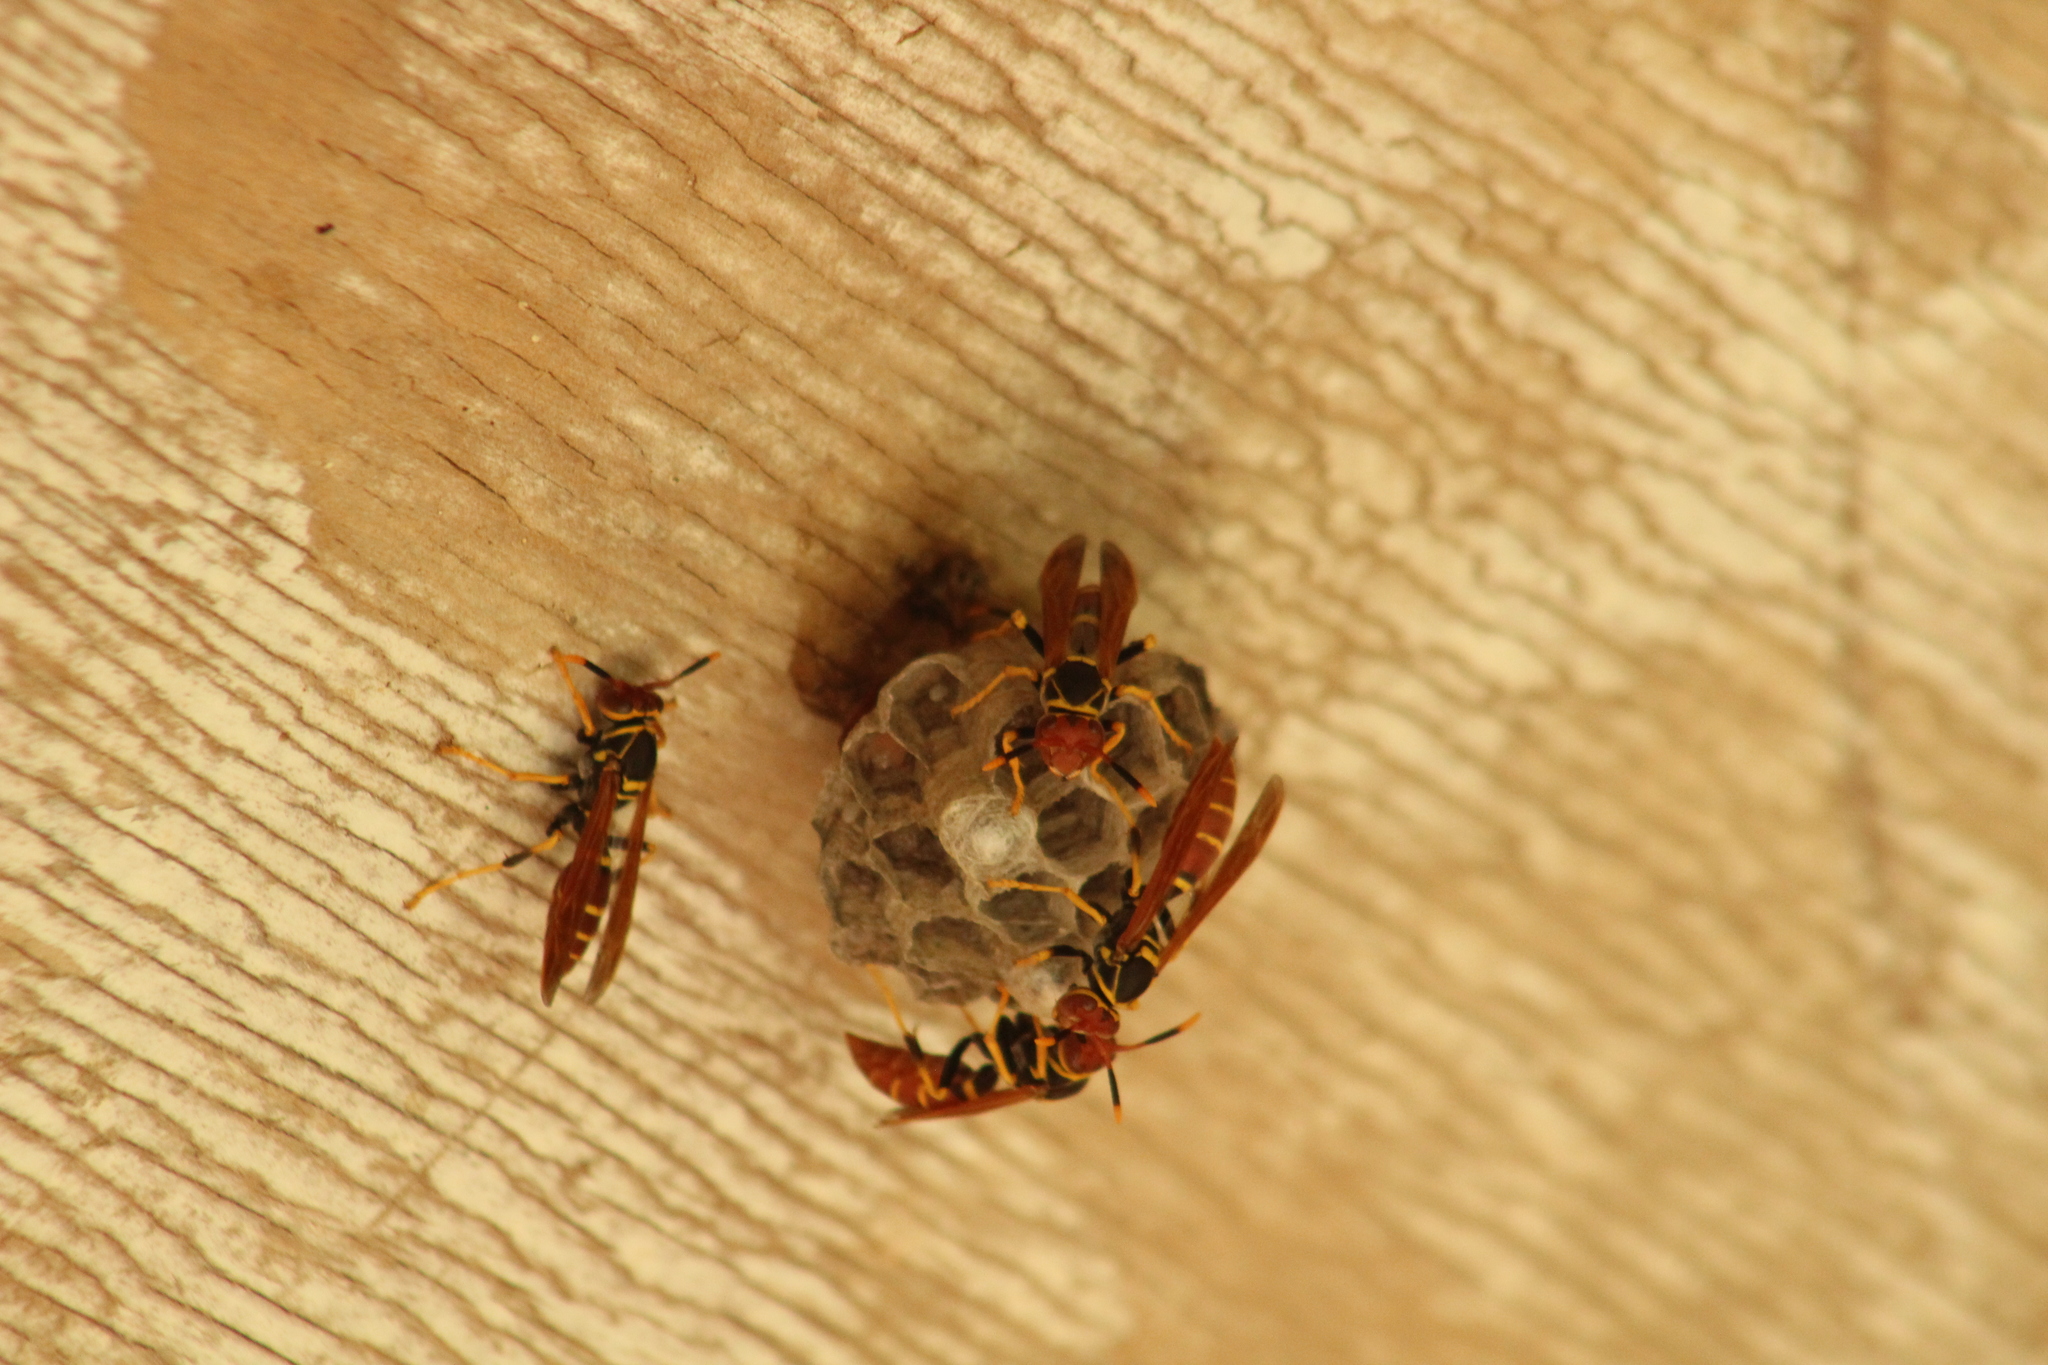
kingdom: Animalia
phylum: Arthropoda
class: Insecta
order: Hymenoptera
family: Eumenidae
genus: Polistes
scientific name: Polistes crinitus
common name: Jack spaniard
